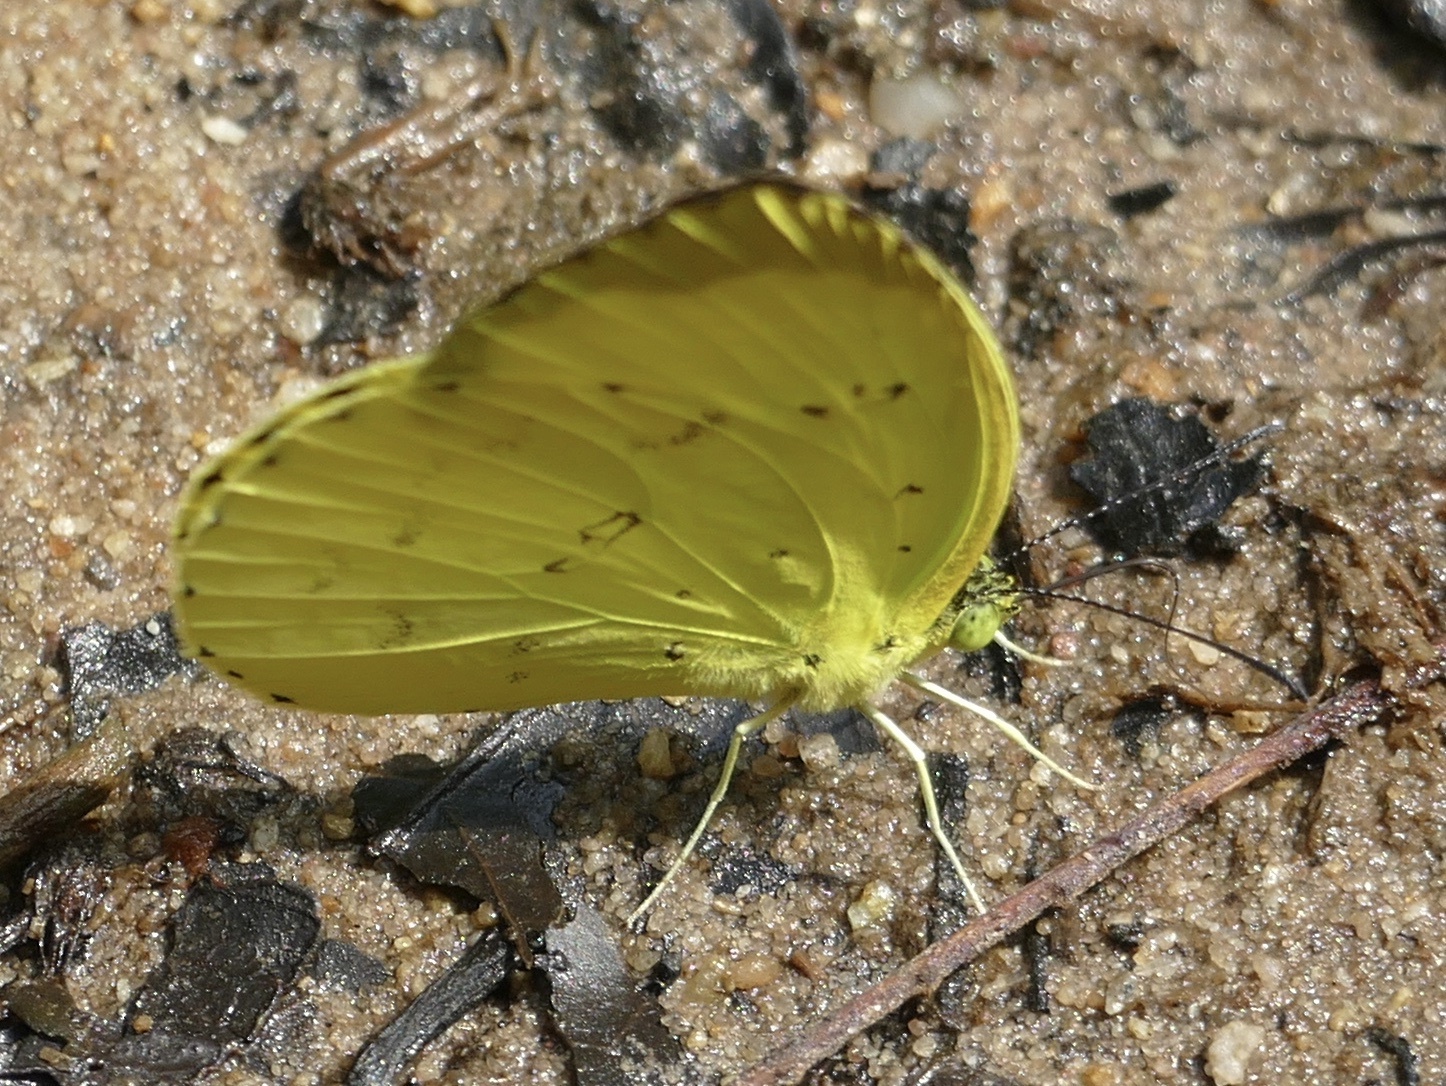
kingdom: Animalia
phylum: Arthropoda
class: Insecta
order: Lepidoptera
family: Pieridae
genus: Eurema
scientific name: Eurema senegalensis
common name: Forest grass yellow
